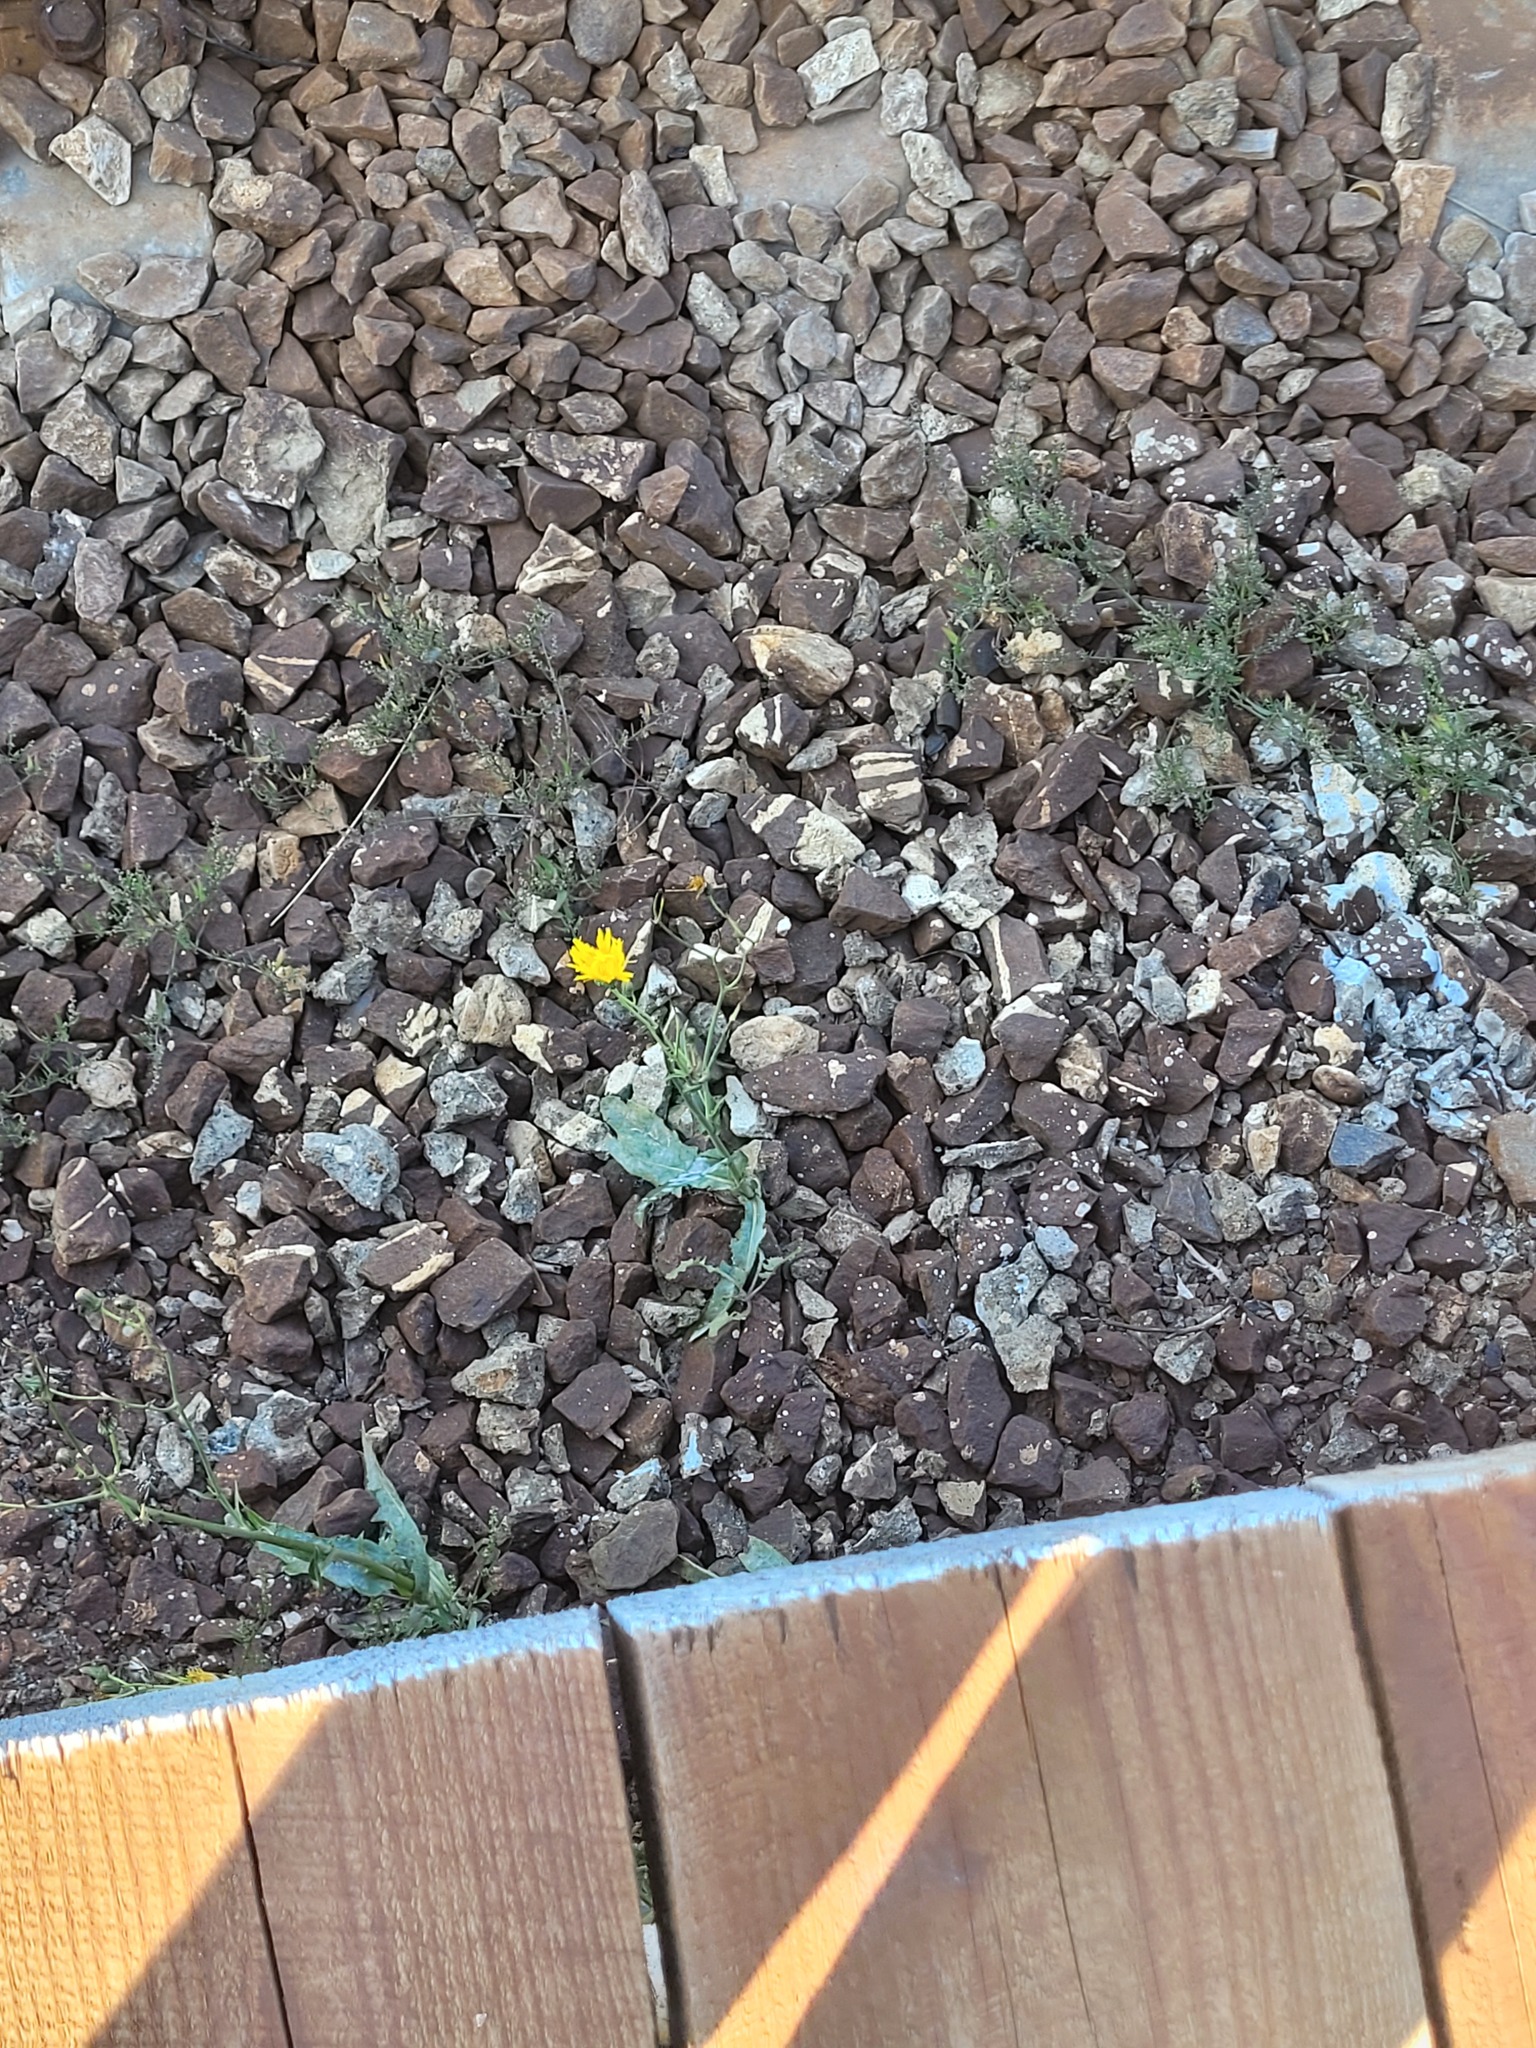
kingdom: Plantae
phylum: Tracheophyta
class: Magnoliopsida
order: Asterales
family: Asteraceae
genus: Sonchus
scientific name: Sonchus arvensis
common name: Perennial sow-thistle
